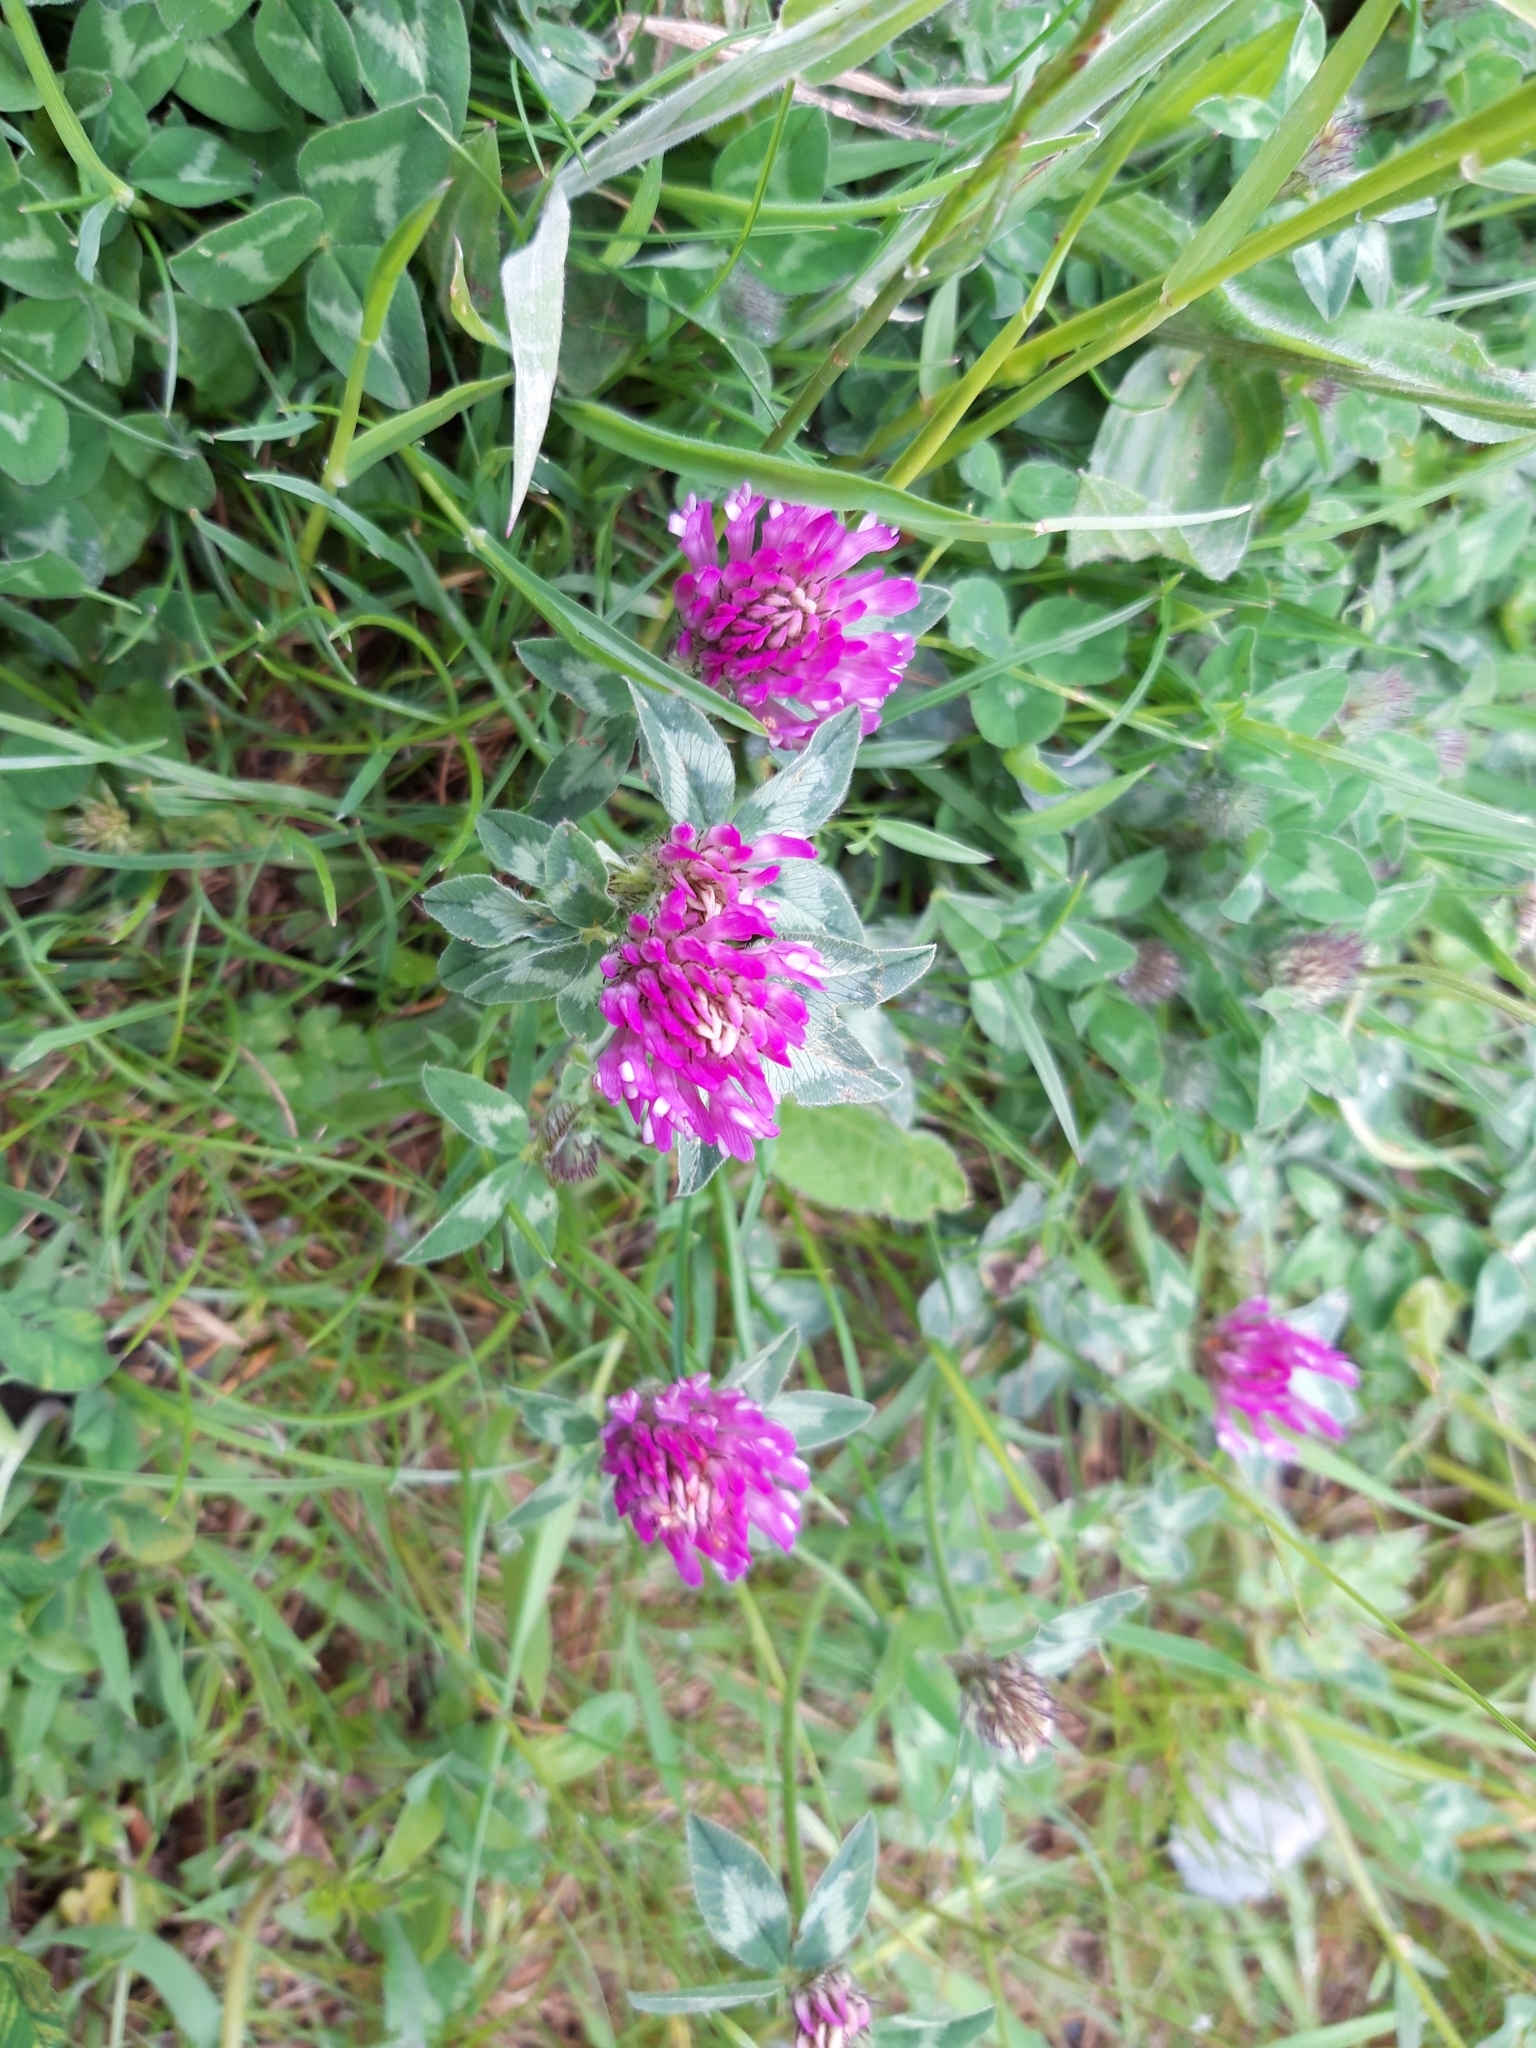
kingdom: Plantae
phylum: Tracheophyta
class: Magnoliopsida
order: Fabales
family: Fabaceae
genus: Trifolium
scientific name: Trifolium pratense
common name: Red clover
